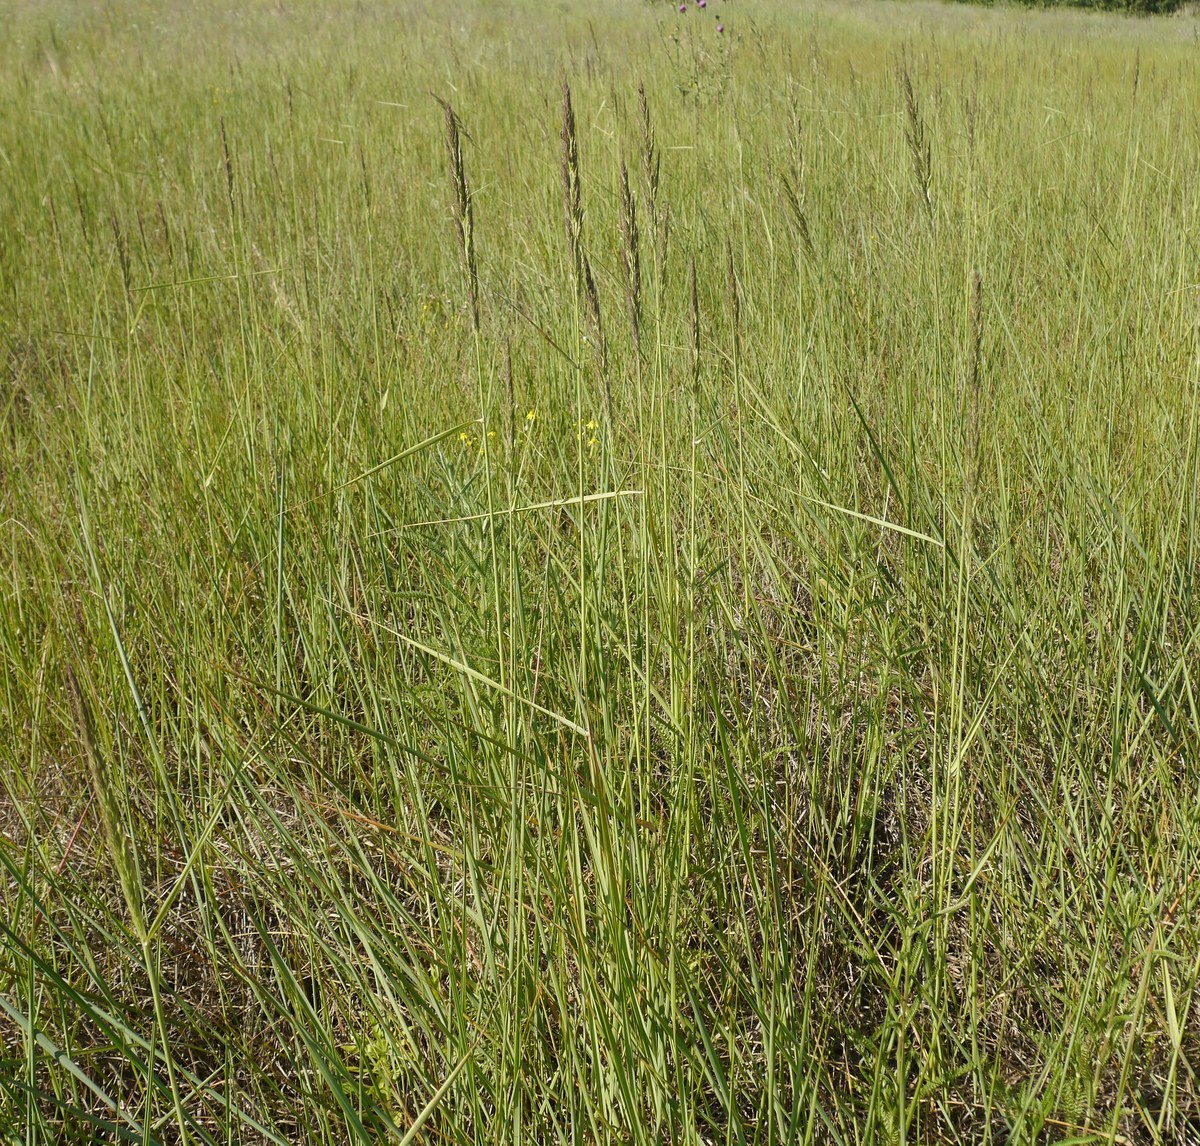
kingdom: Plantae
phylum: Tracheophyta
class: Liliopsida
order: Poales
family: Poaceae
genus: Calamagrostis
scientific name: Calamagrostis epigejos
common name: Wood small-reed
